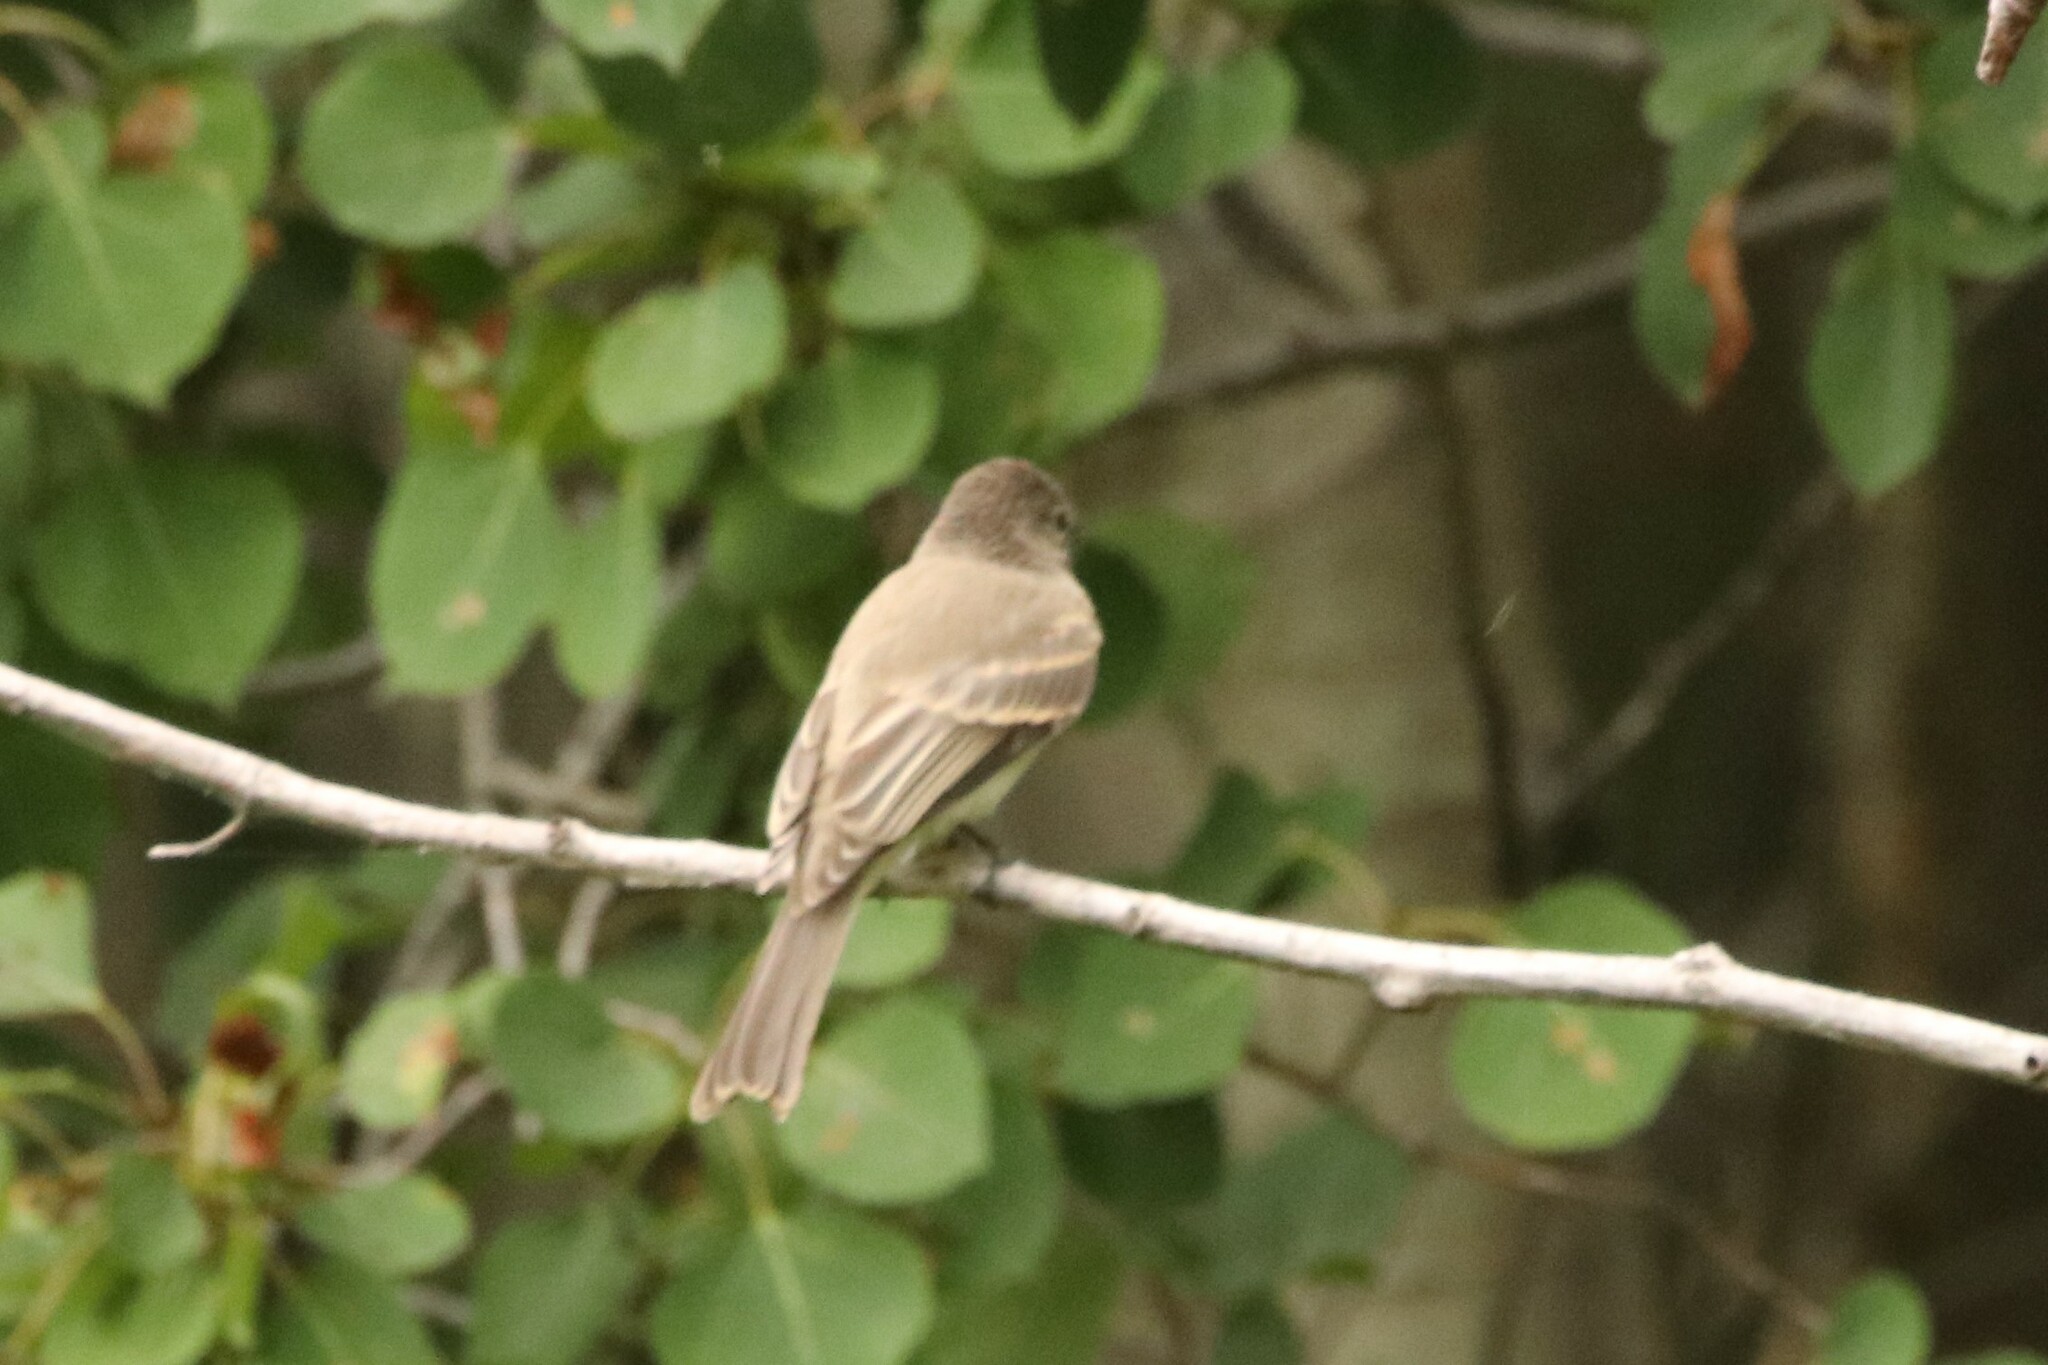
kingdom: Animalia
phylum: Chordata
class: Aves
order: Passeriformes
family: Tyrannidae
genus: Sayornis
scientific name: Sayornis phoebe
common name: Eastern phoebe
